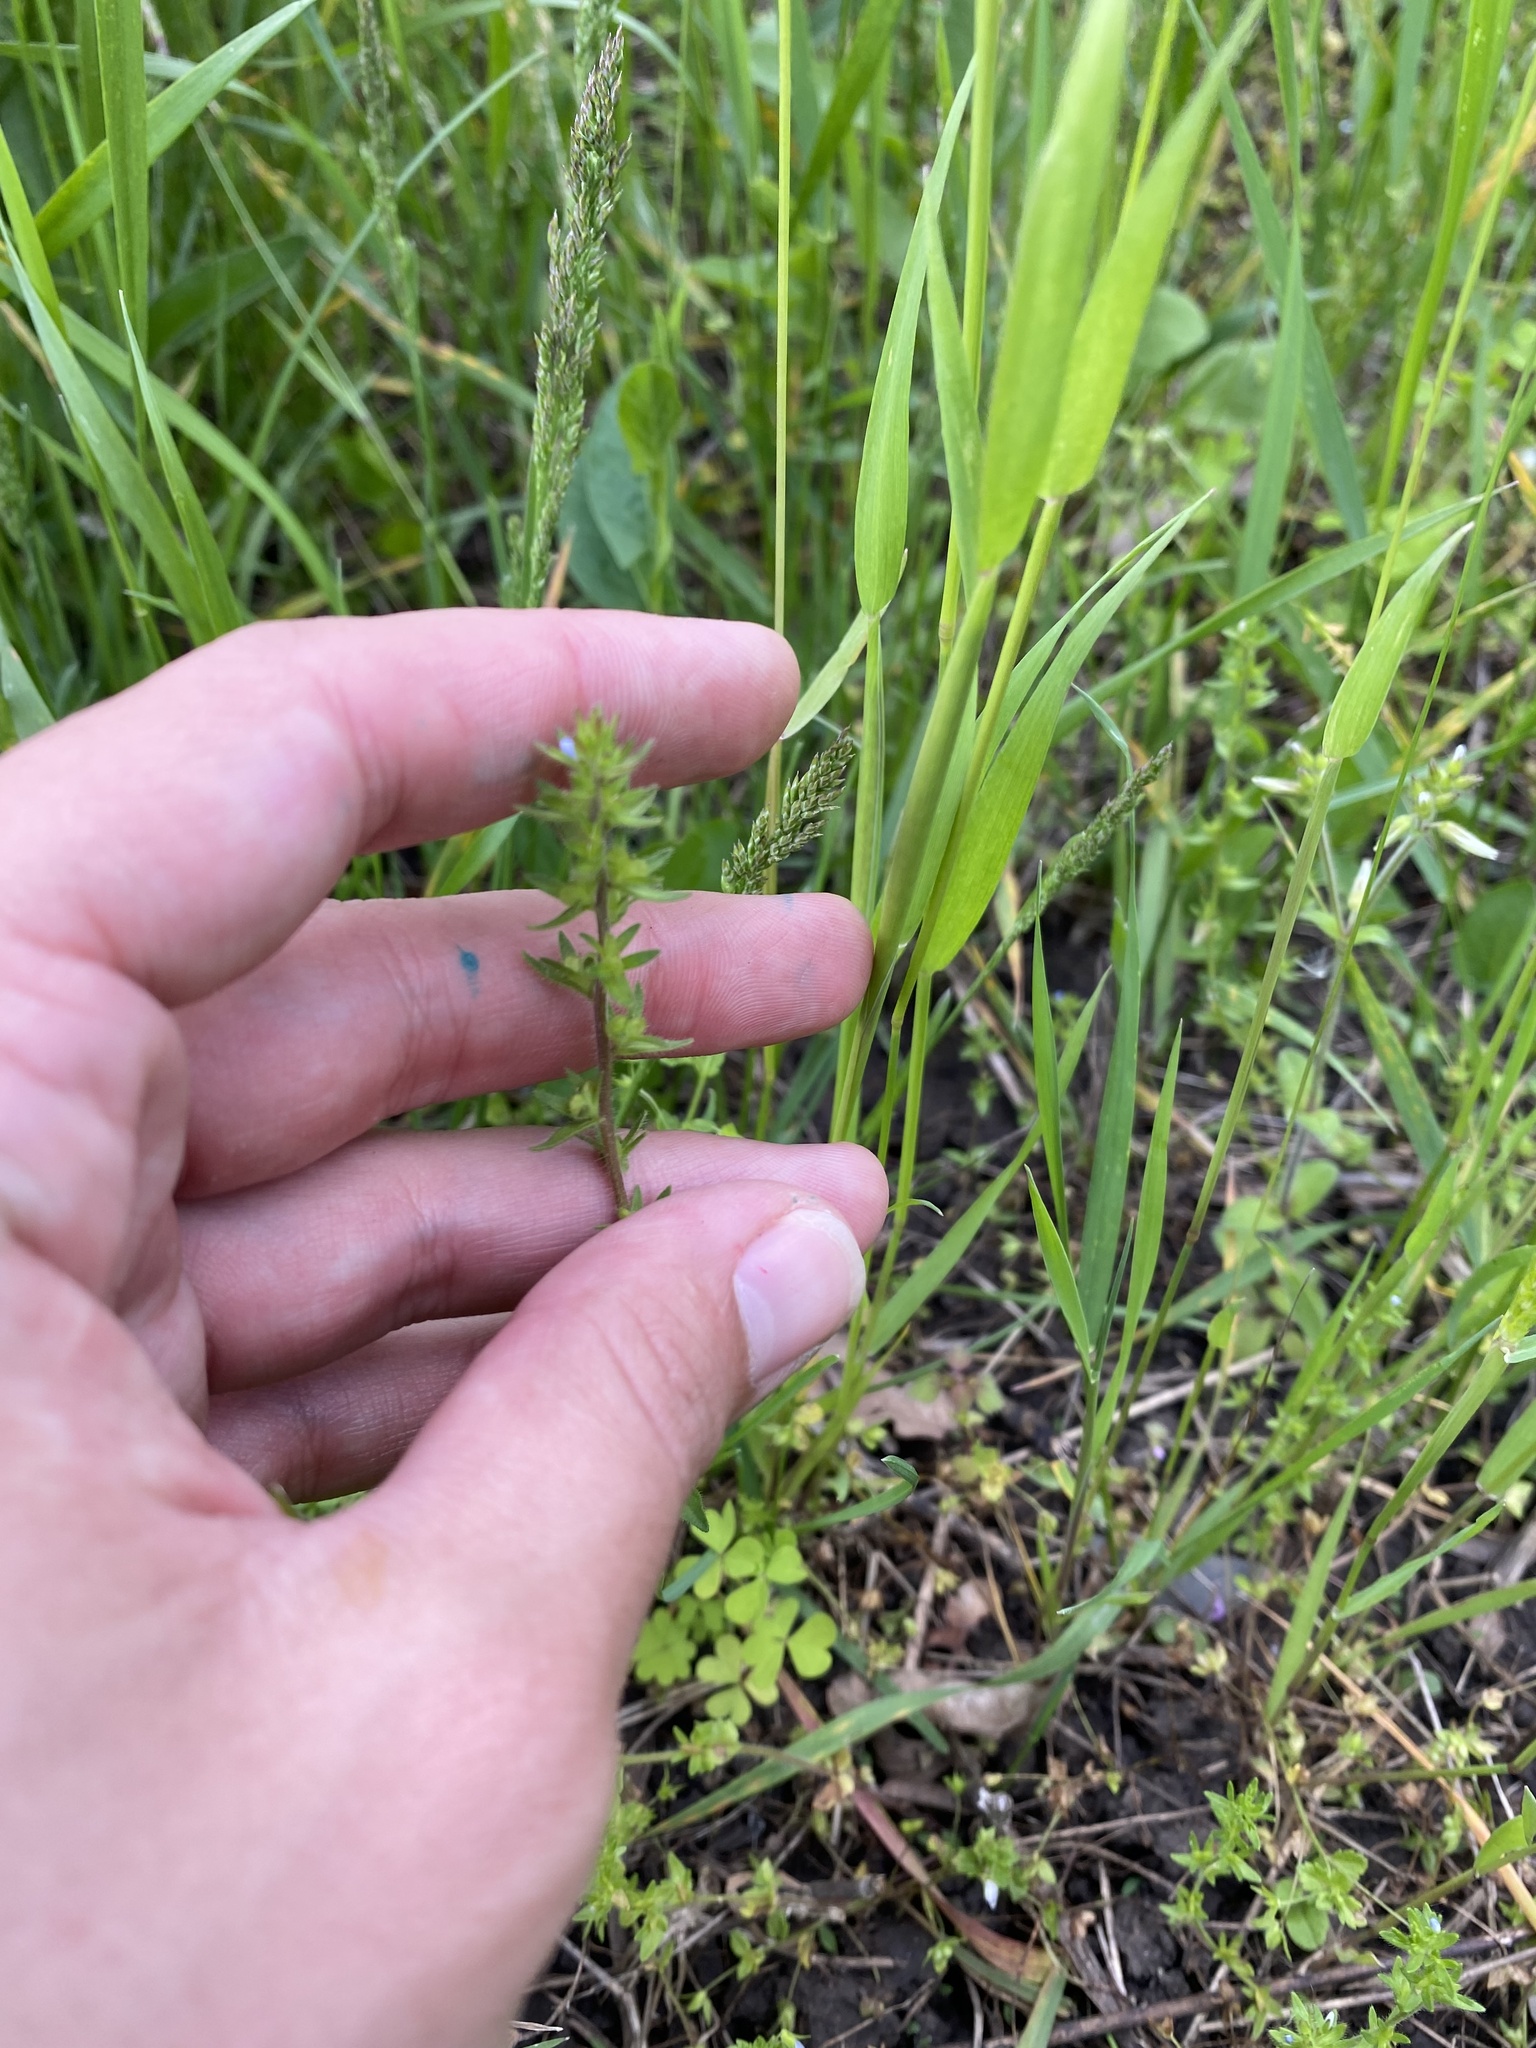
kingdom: Plantae
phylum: Tracheophyta
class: Magnoliopsida
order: Lamiales
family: Plantaginaceae
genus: Veronica
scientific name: Veronica arvensis
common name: Corn speedwell
